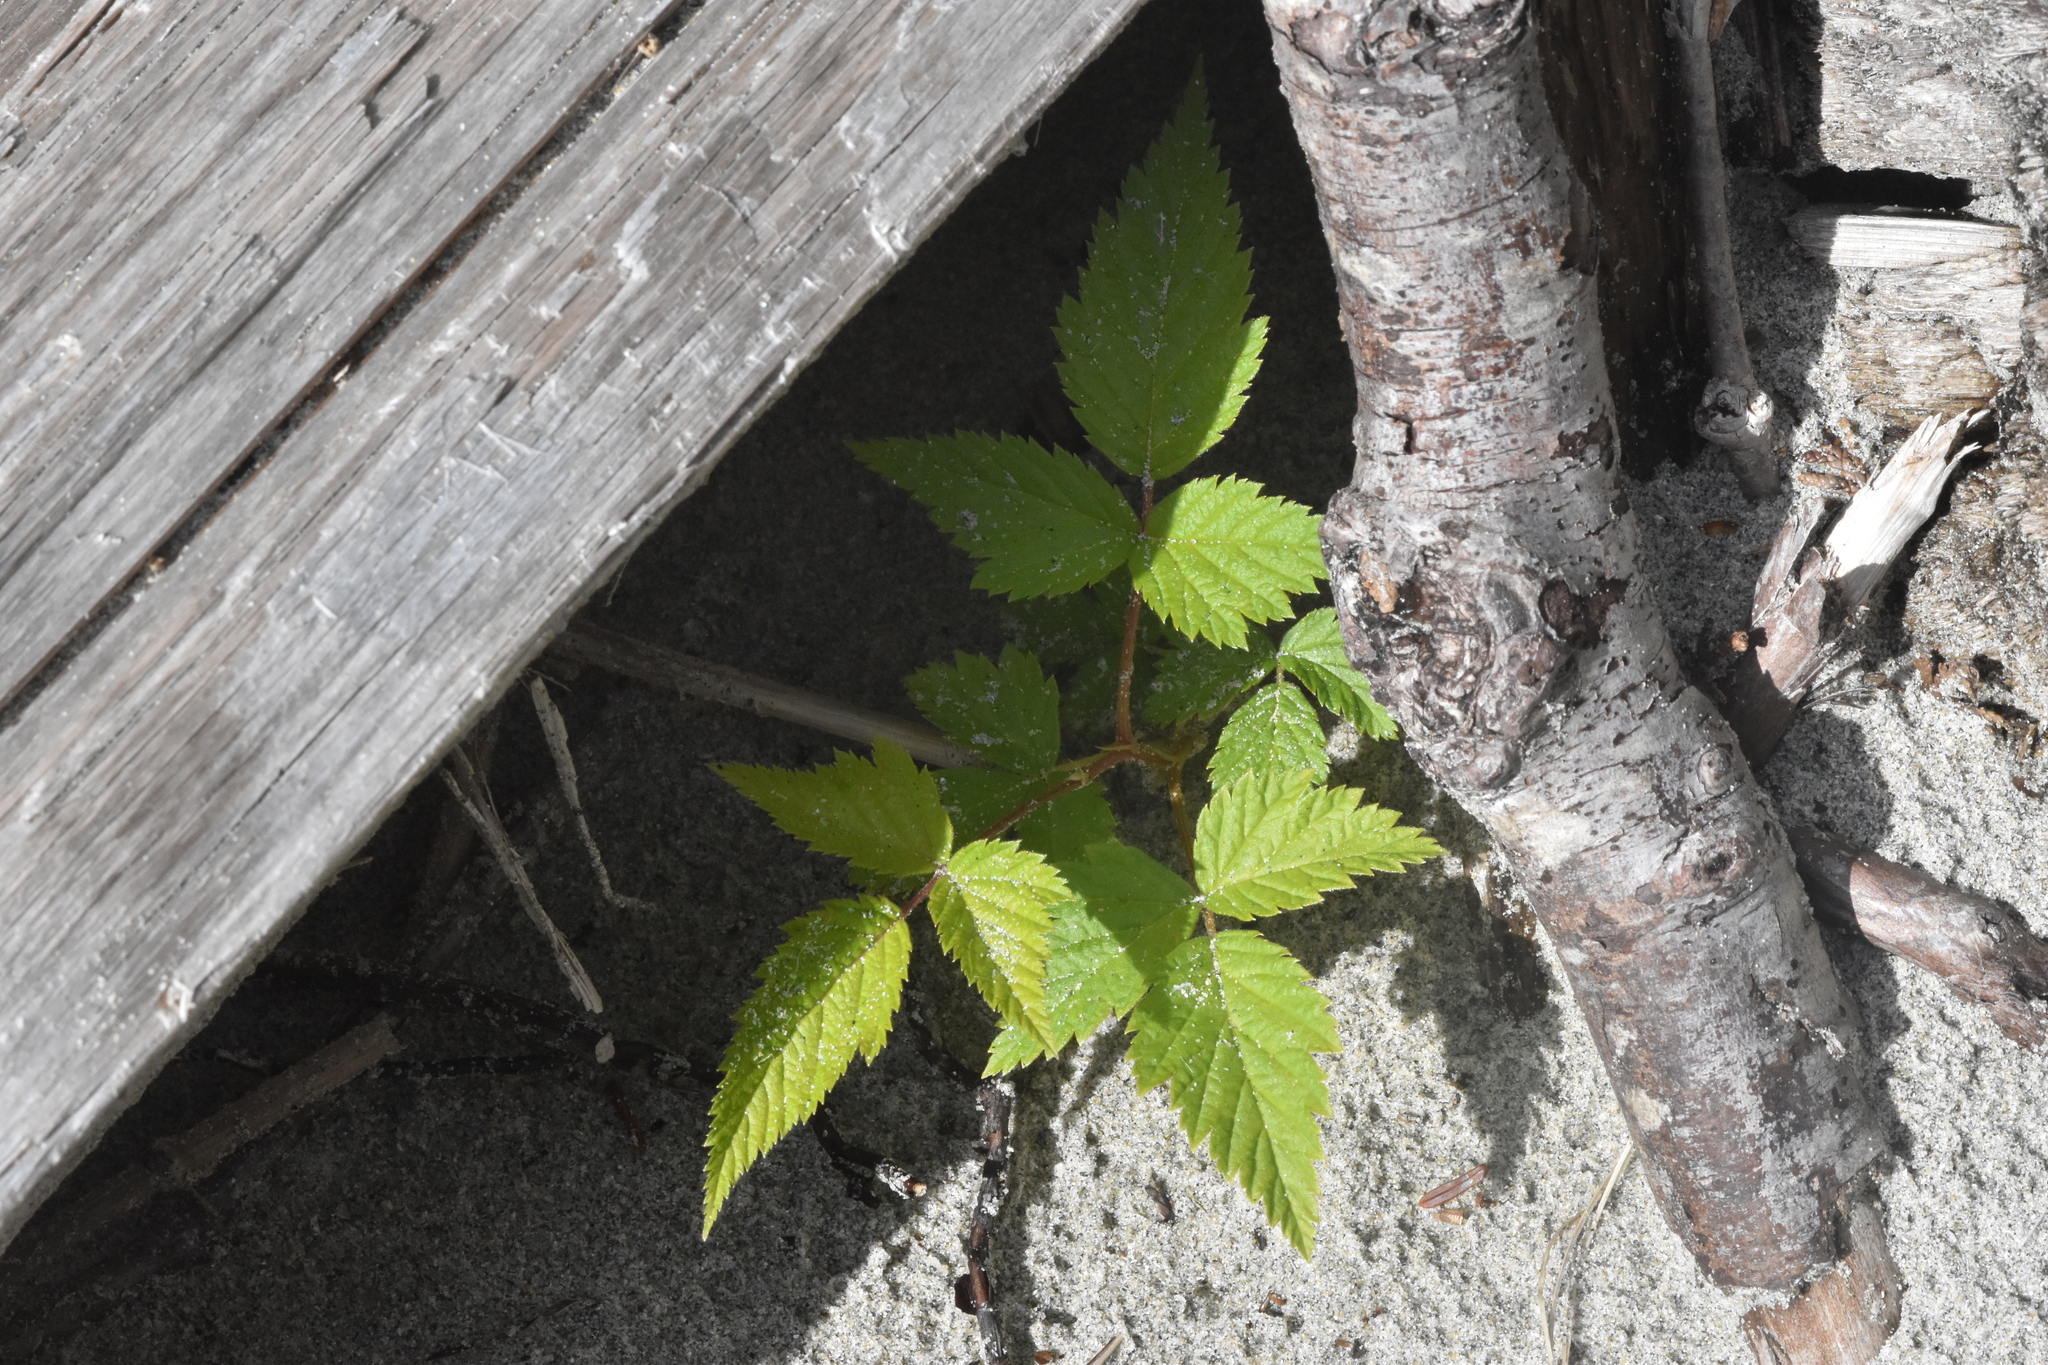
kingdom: Plantae
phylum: Tracheophyta
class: Magnoliopsida
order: Rosales
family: Rosaceae
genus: Rubus
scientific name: Rubus spectabilis
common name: Salmonberry
